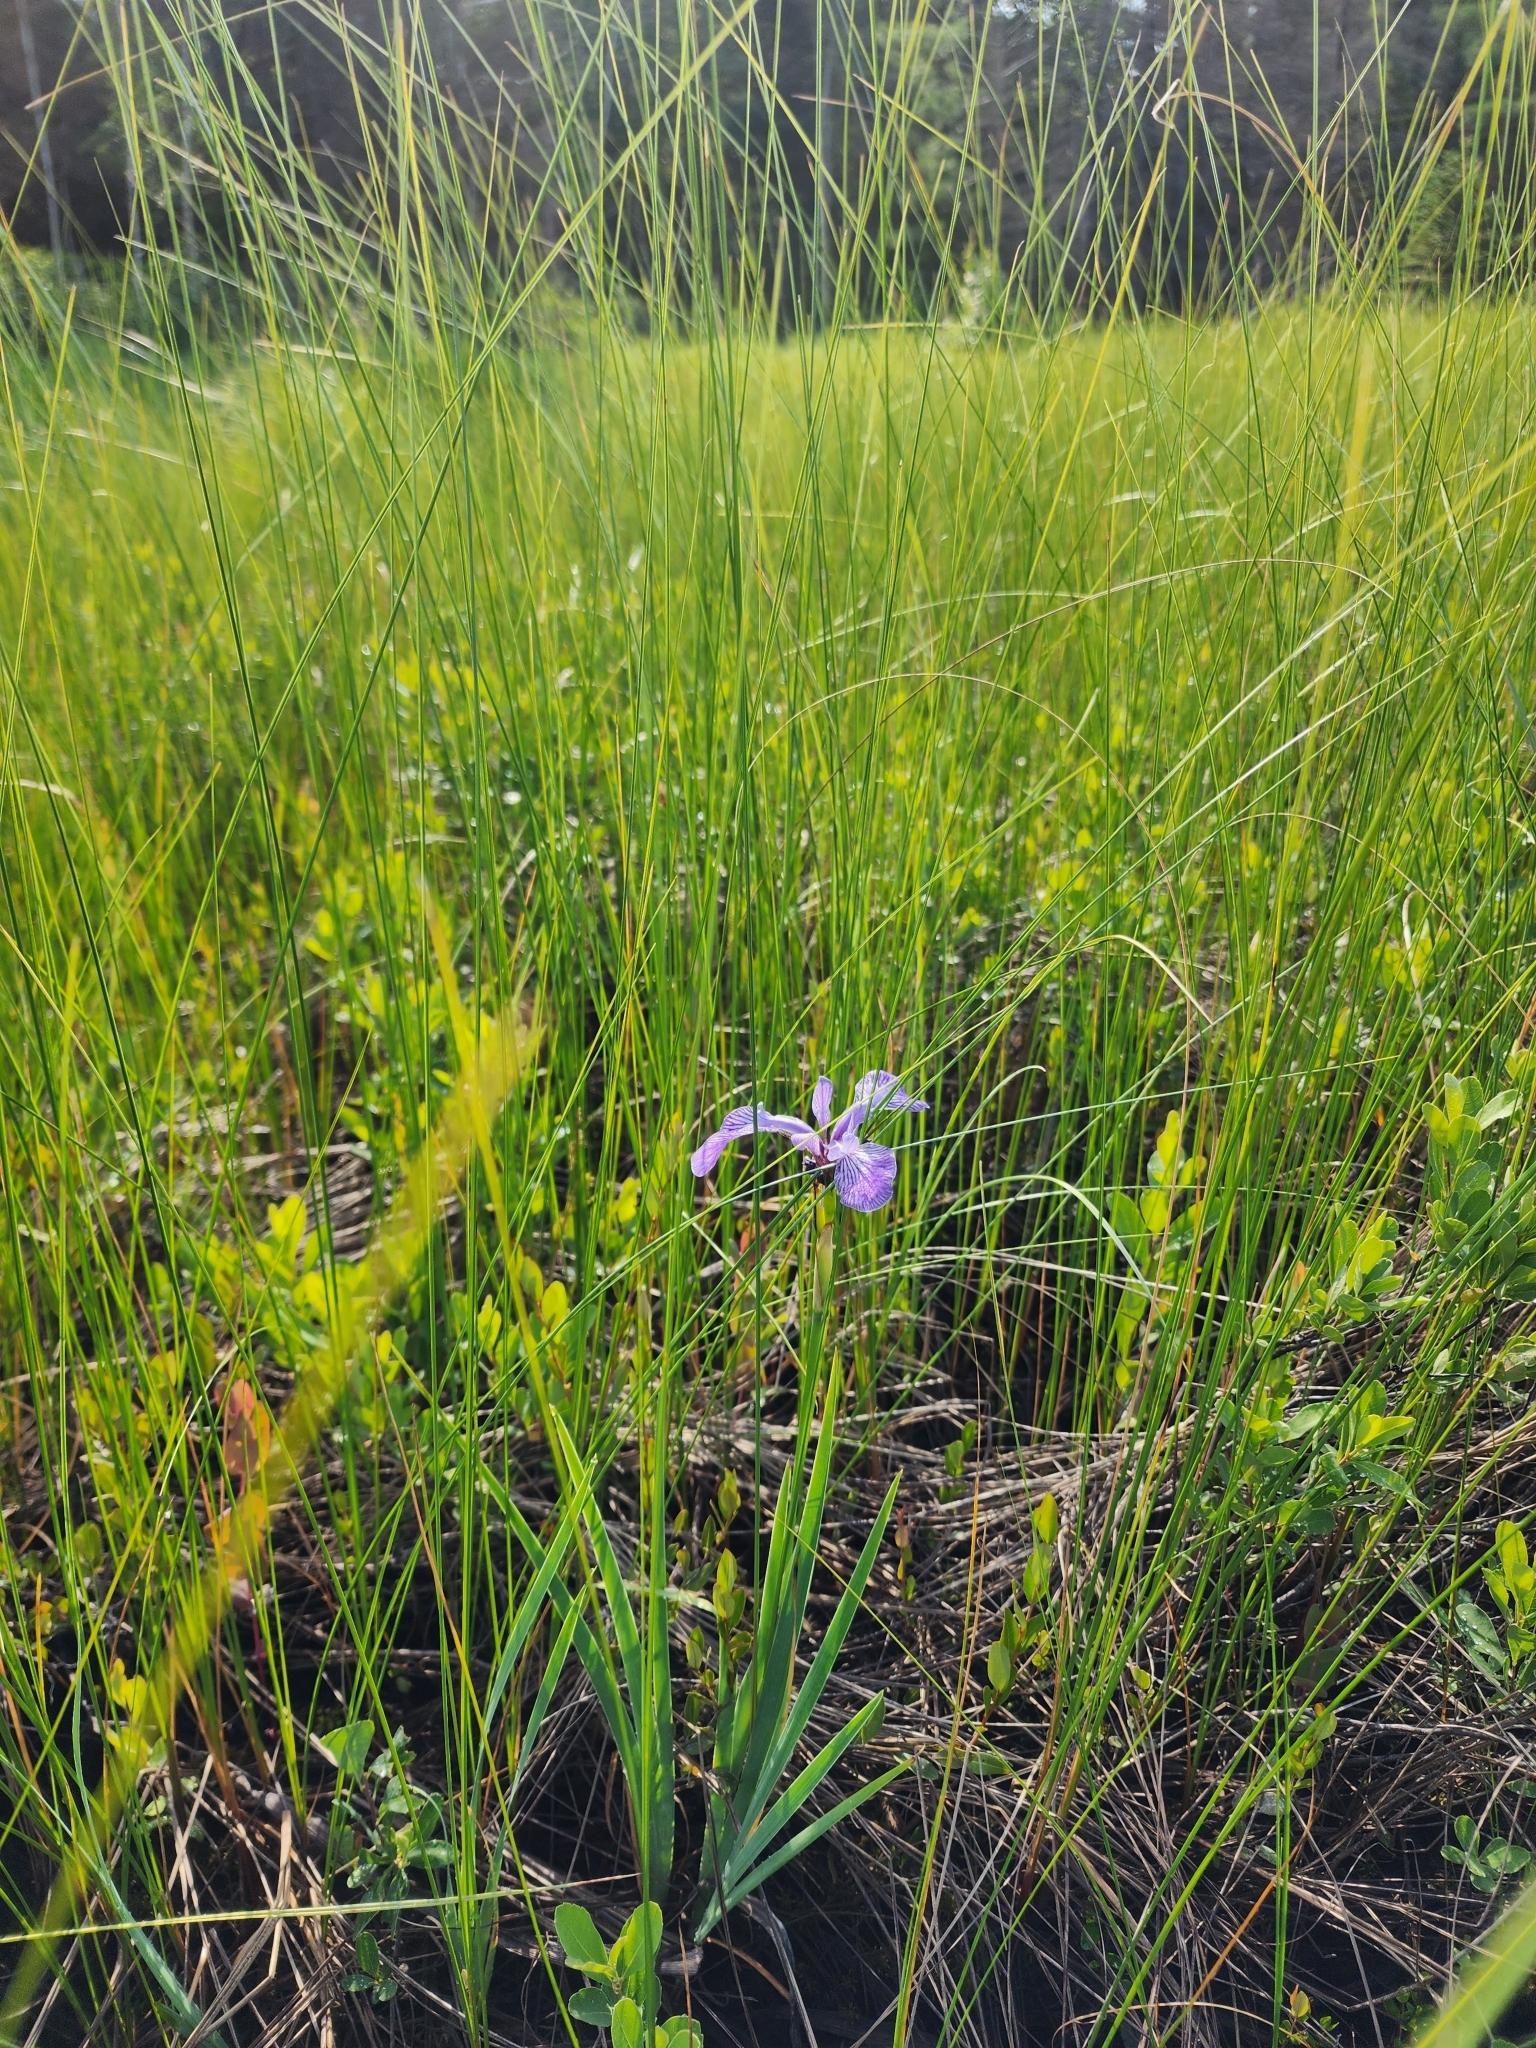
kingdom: Plantae
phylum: Tracheophyta
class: Liliopsida
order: Asparagales
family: Iridaceae
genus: Iris
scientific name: Iris versicolor
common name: Purple iris
